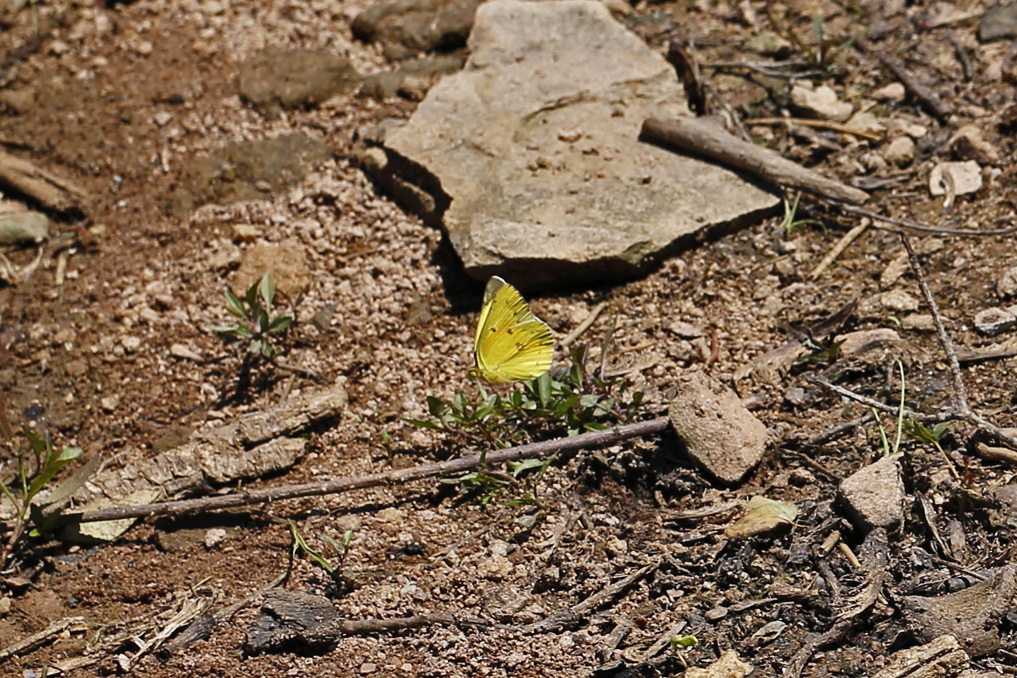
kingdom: Animalia
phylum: Arthropoda
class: Insecta
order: Lepidoptera
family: Pieridae
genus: Colias
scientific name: Colias eurytheme
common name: Alfalfa butterfly
